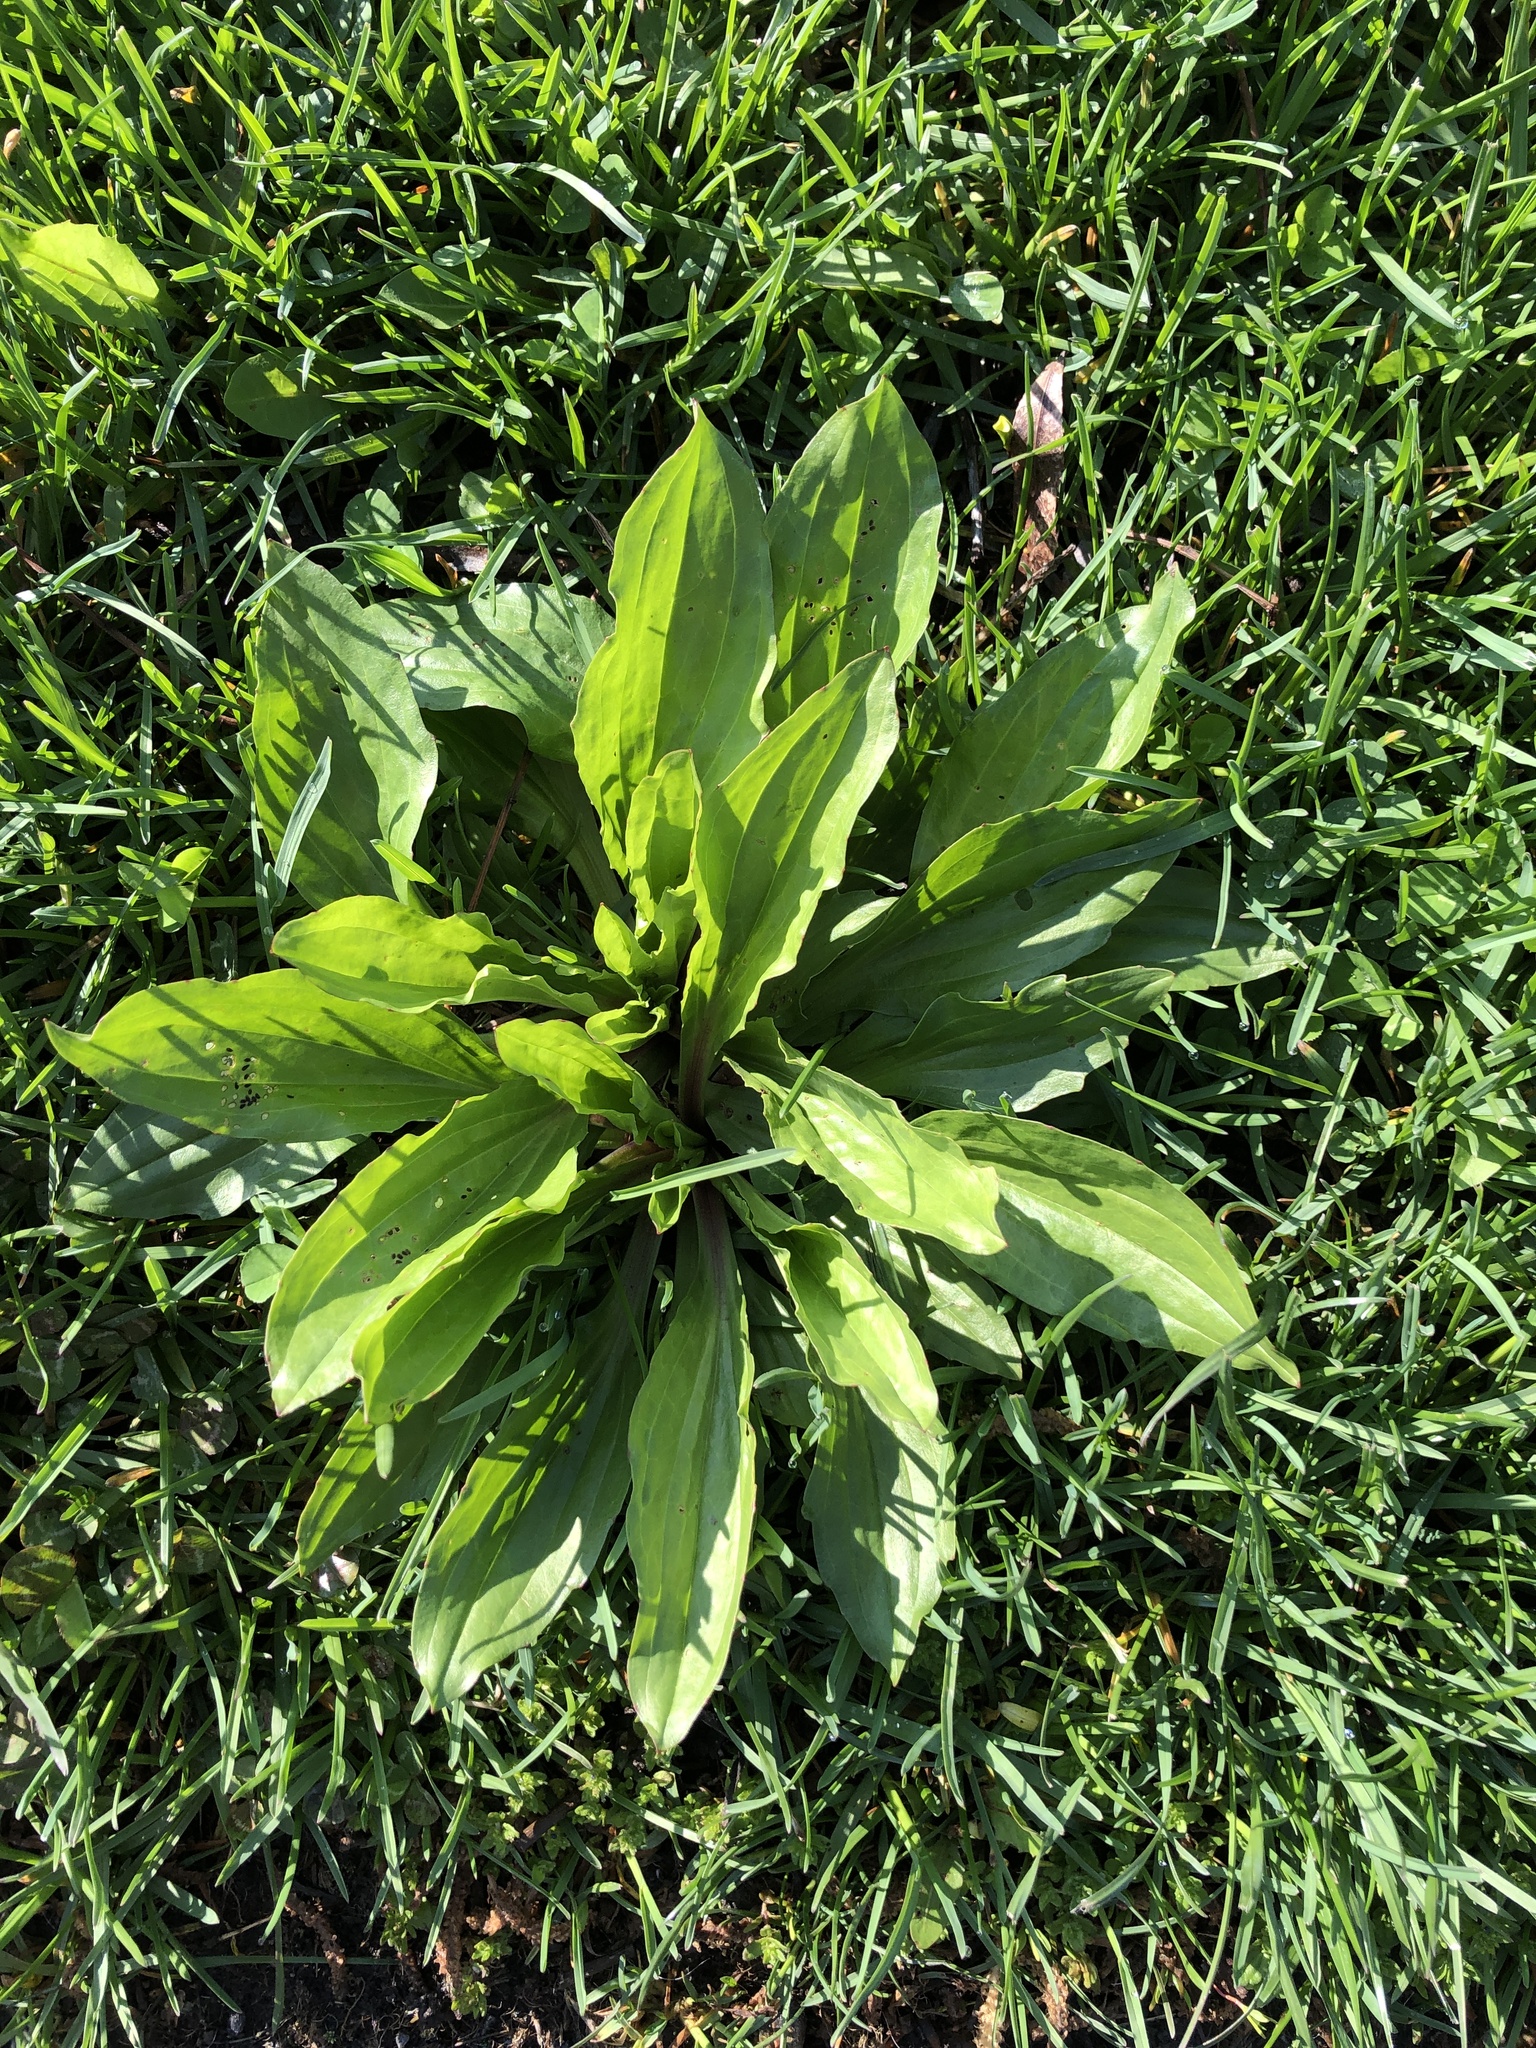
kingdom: Plantae
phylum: Tracheophyta
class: Magnoliopsida
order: Lamiales
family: Plantaginaceae
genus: Plantago
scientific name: Plantago rugelii
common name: American plantain
